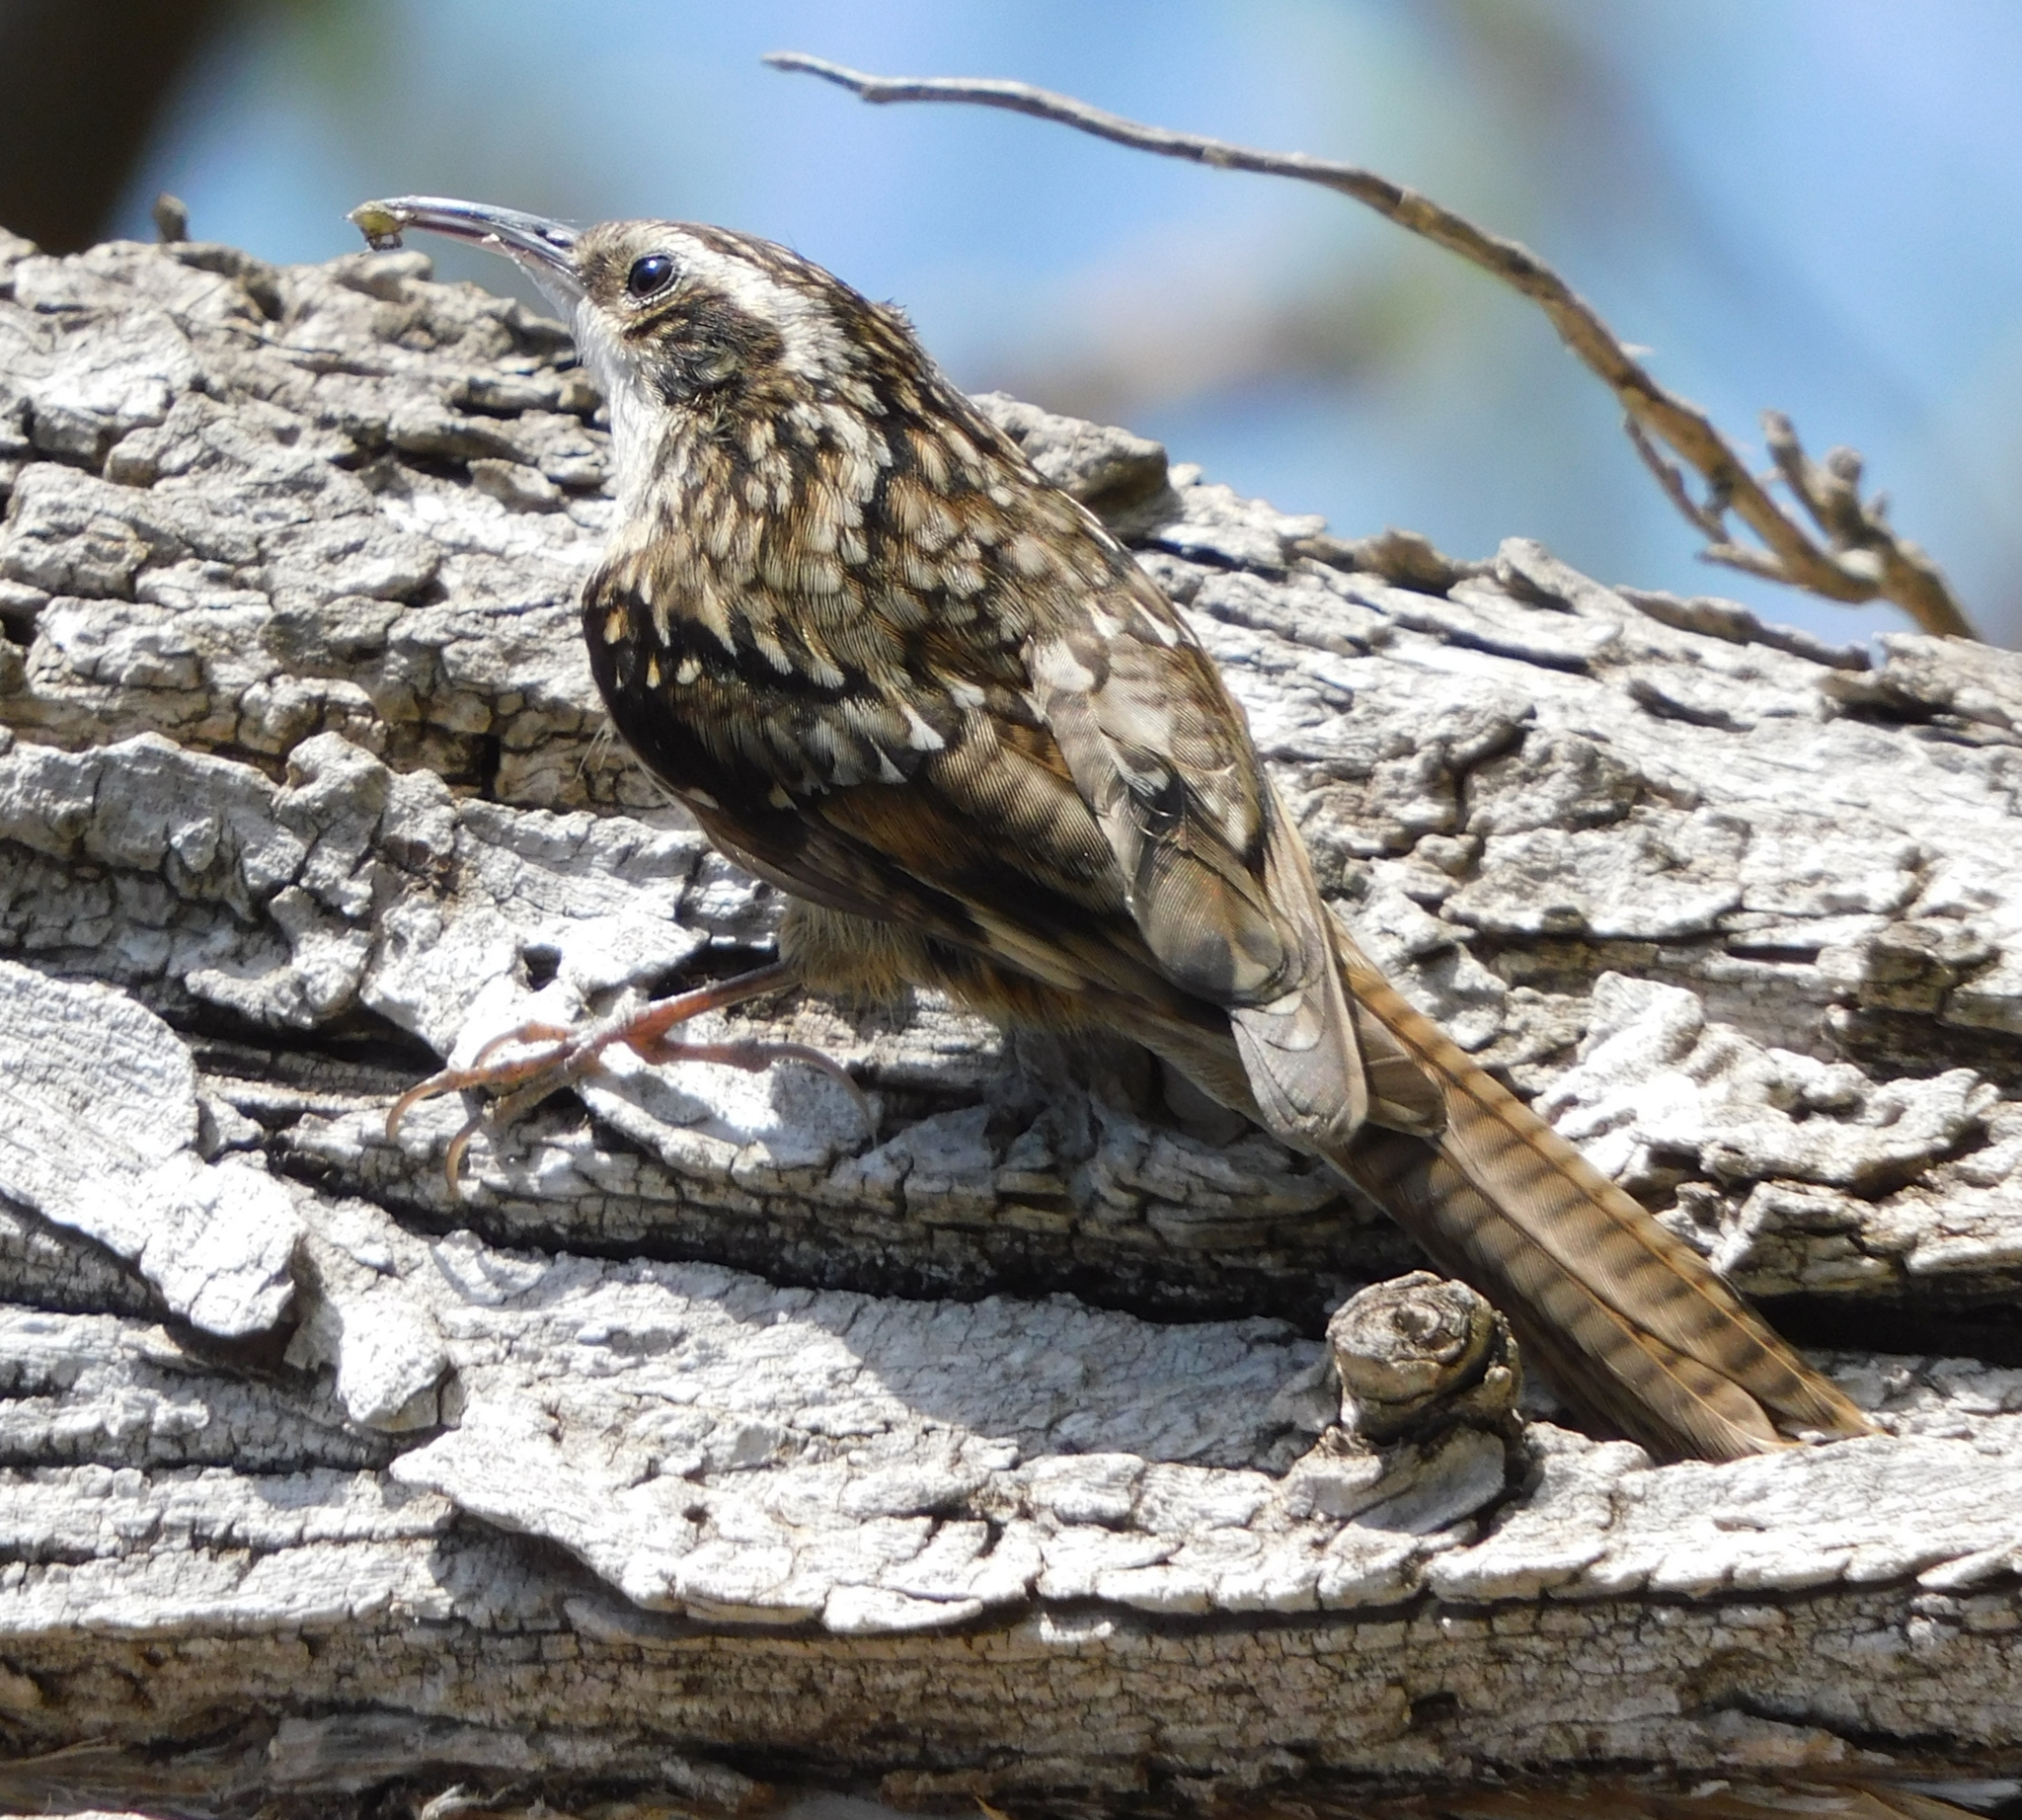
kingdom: Animalia
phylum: Chordata
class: Aves
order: Passeriformes
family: Certhiidae
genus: Certhia
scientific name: Certhia himalayana
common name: Bar-tailed treecreeper
